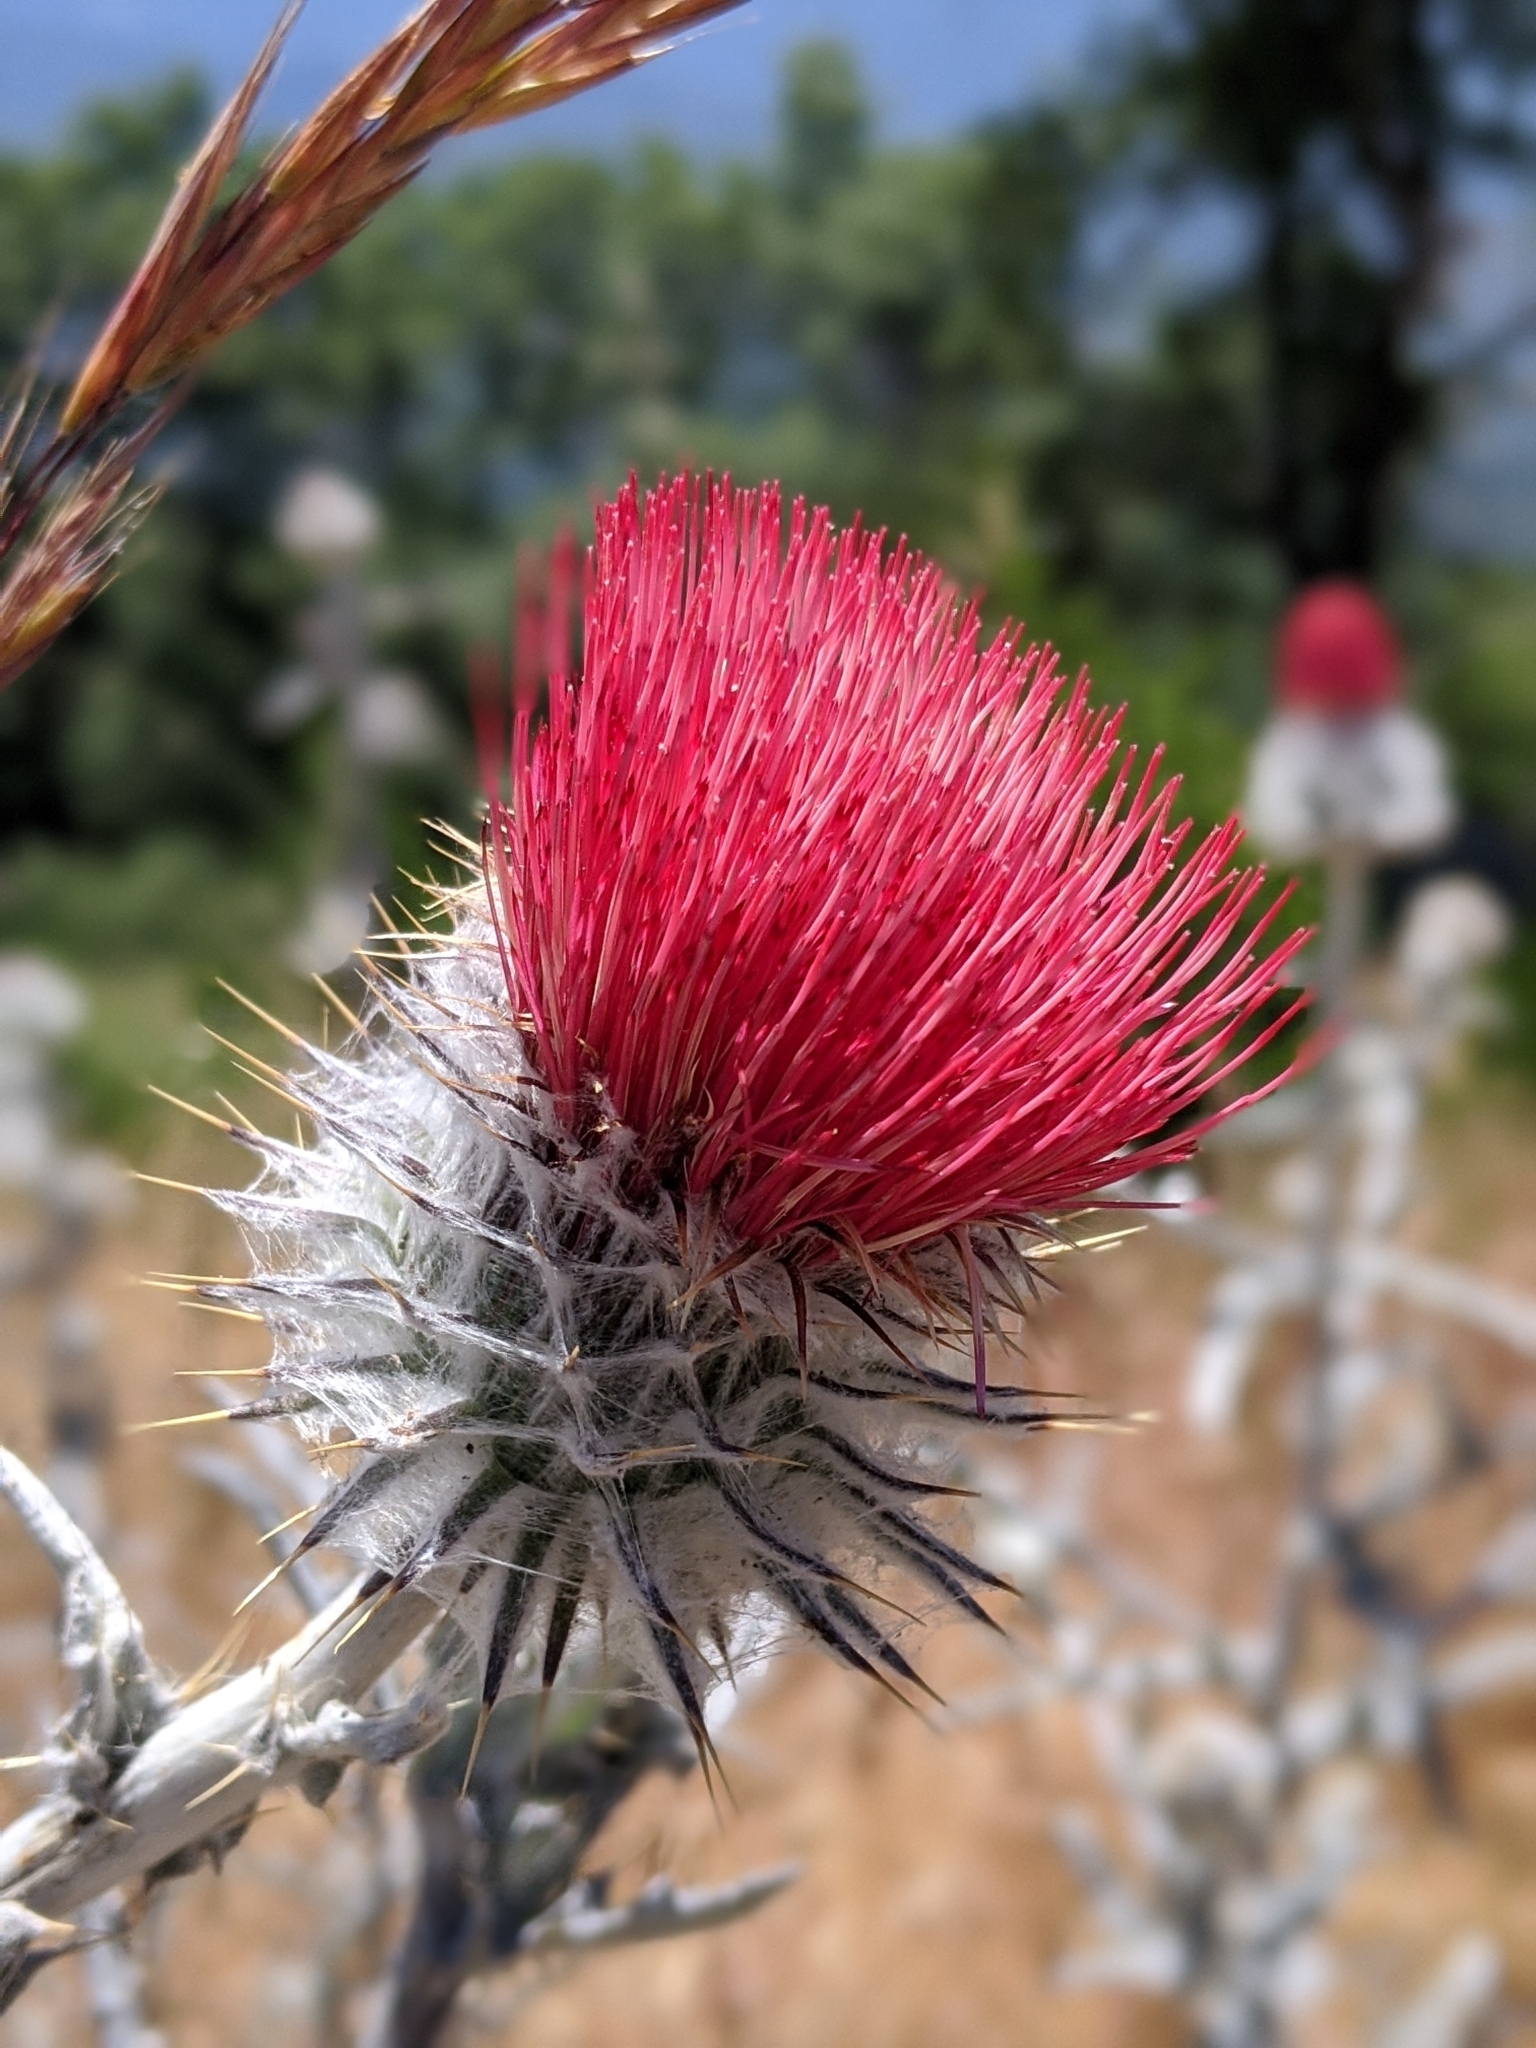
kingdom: Plantae
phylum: Tracheophyta
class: Magnoliopsida
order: Asterales
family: Asteraceae
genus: Cirsium
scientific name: Cirsium occidentale
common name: Western thistle
